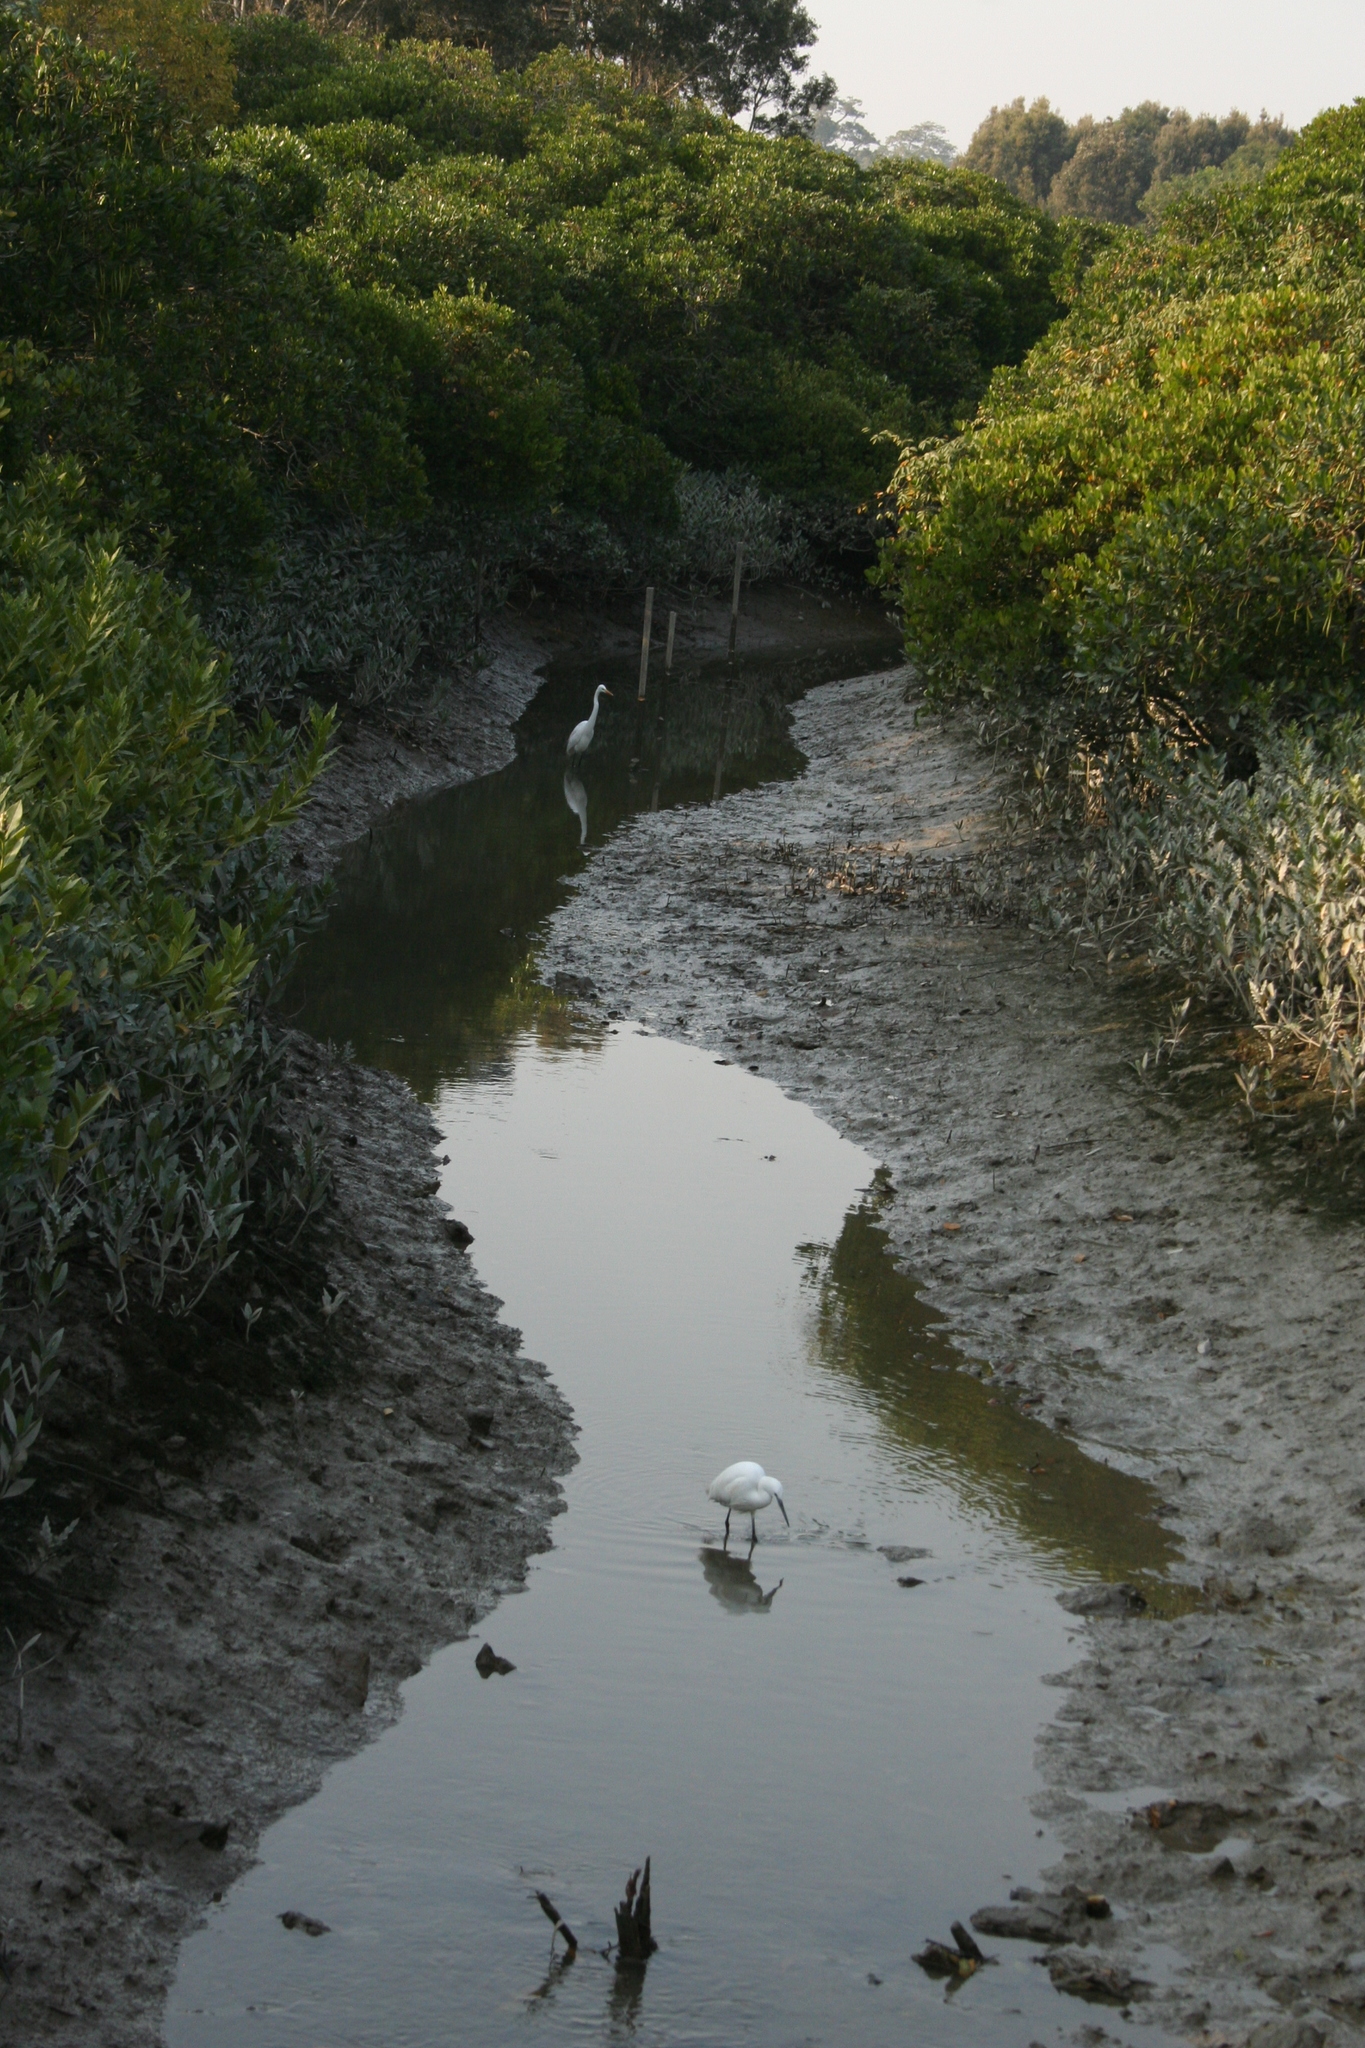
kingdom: Animalia
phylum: Chordata
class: Aves
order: Pelecaniformes
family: Ardeidae
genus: Egretta
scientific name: Egretta garzetta
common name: Little egret
